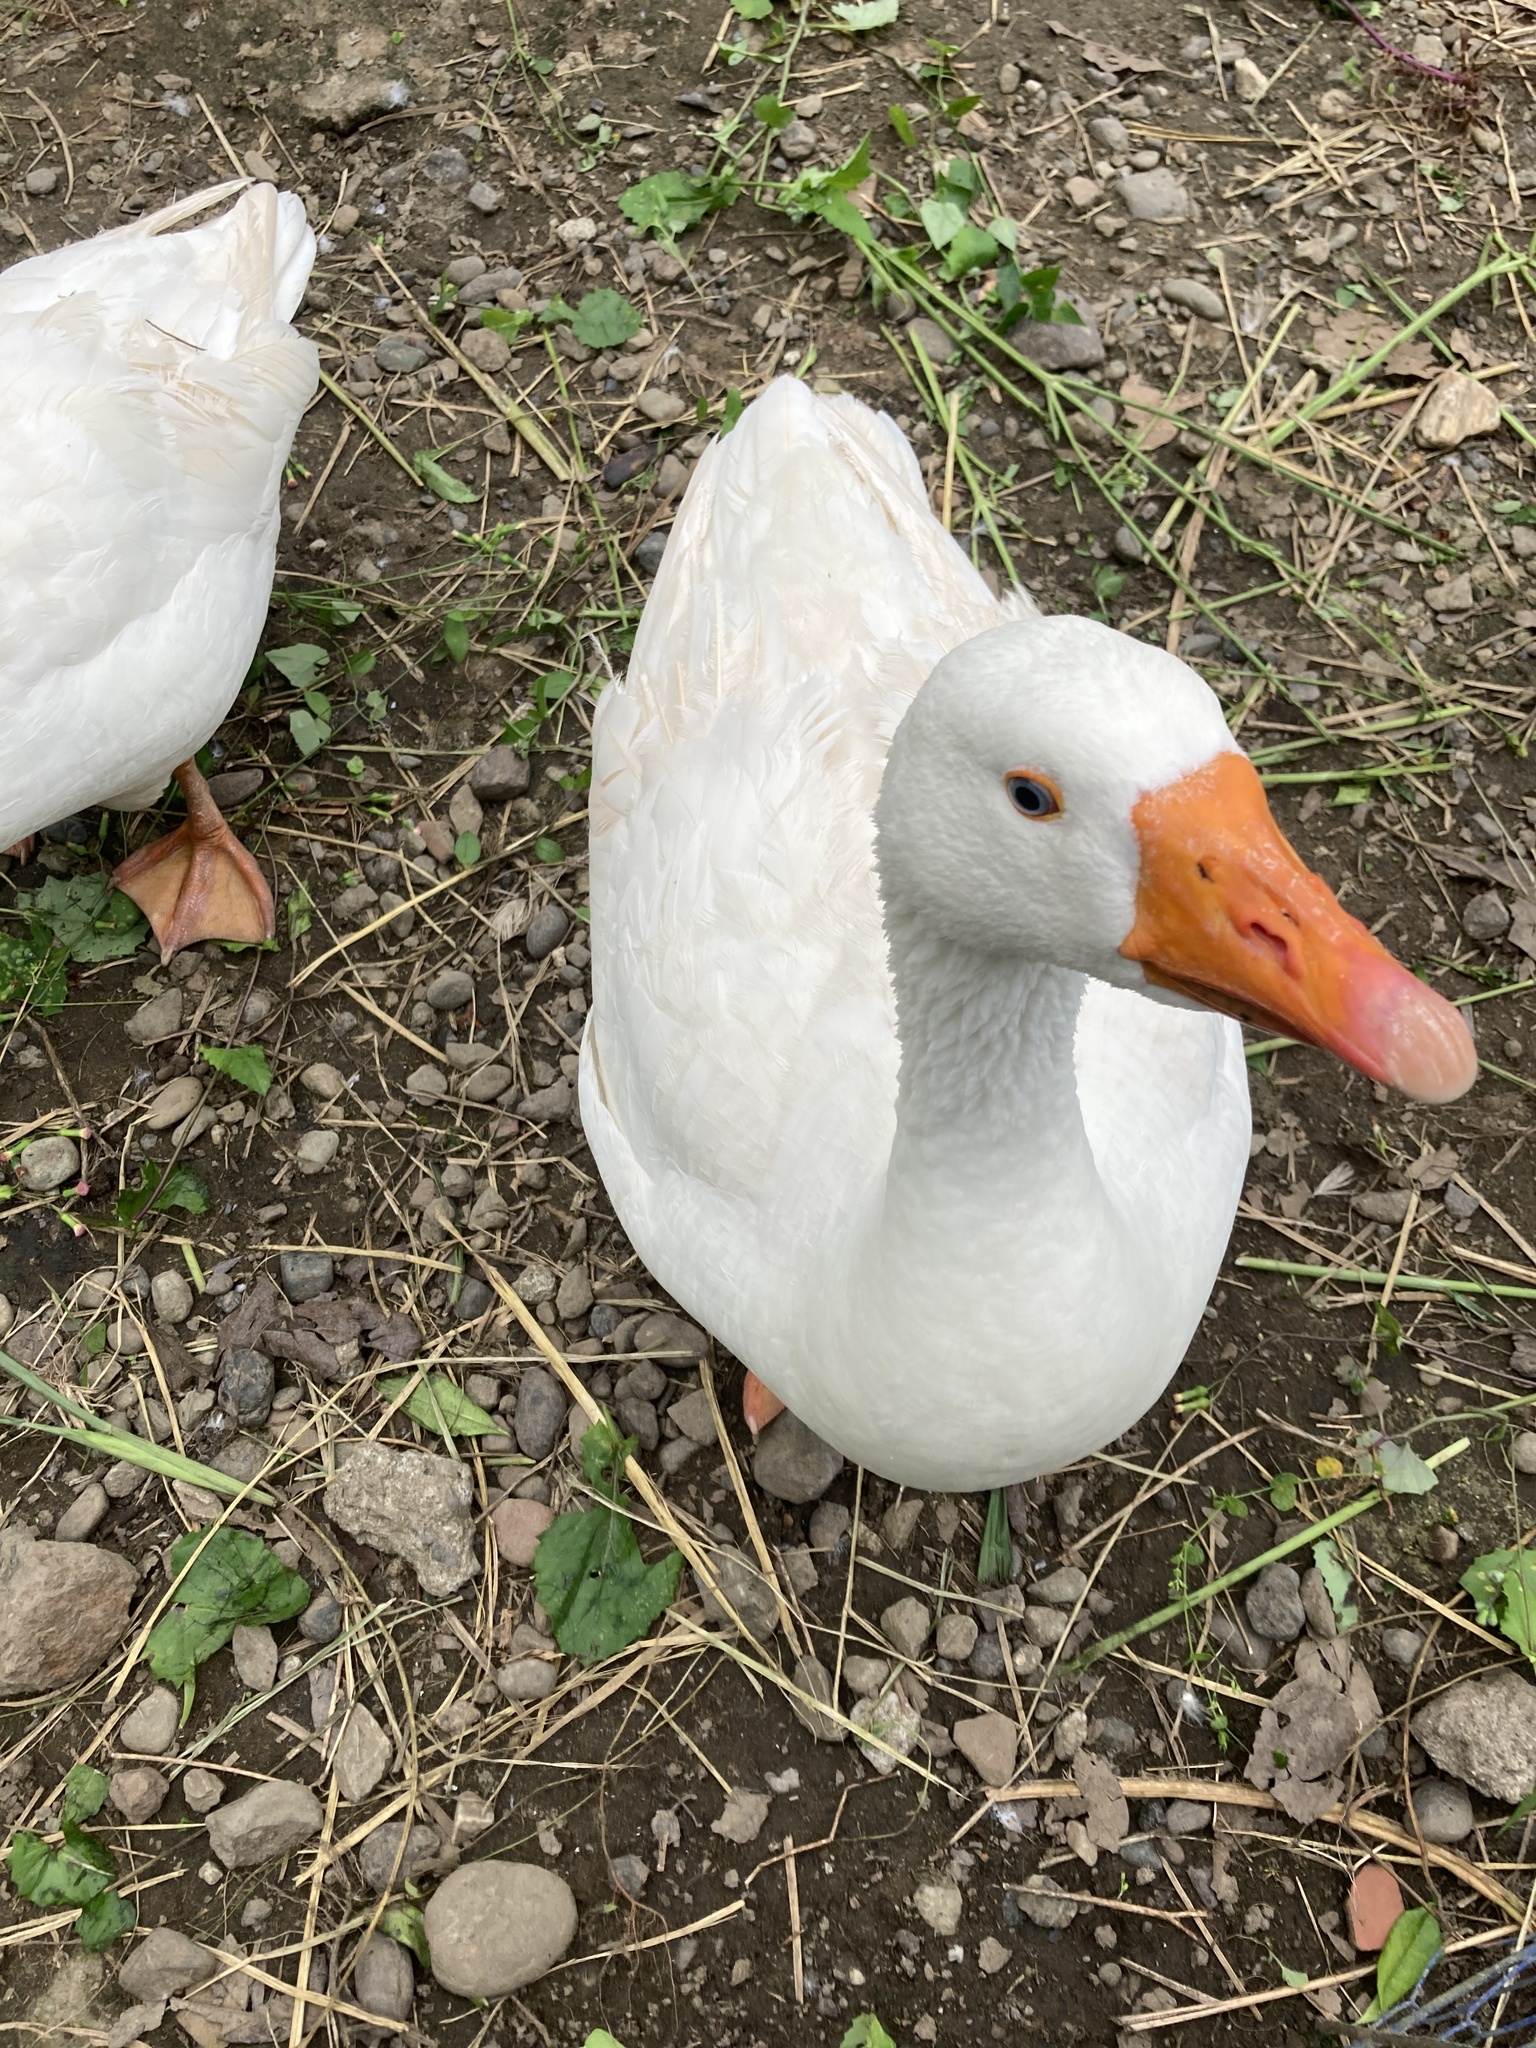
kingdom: Animalia
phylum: Chordata
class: Aves
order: Anseriformes
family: Anatidae
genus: Anser
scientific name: Anser anser
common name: Greylag goose
